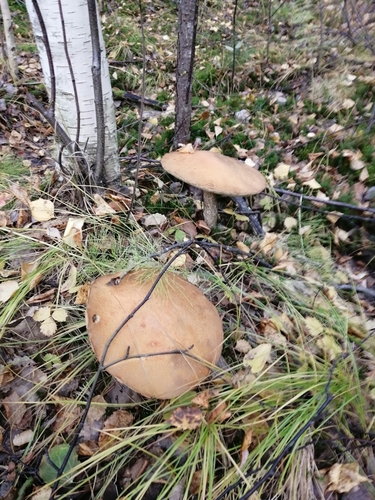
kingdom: Fungi
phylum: Basidiomycota
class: Agaricomycetes
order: Boletales
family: Boletaceae
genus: Leccinum
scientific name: Leccinum versipelle
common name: Orange birch bolete
